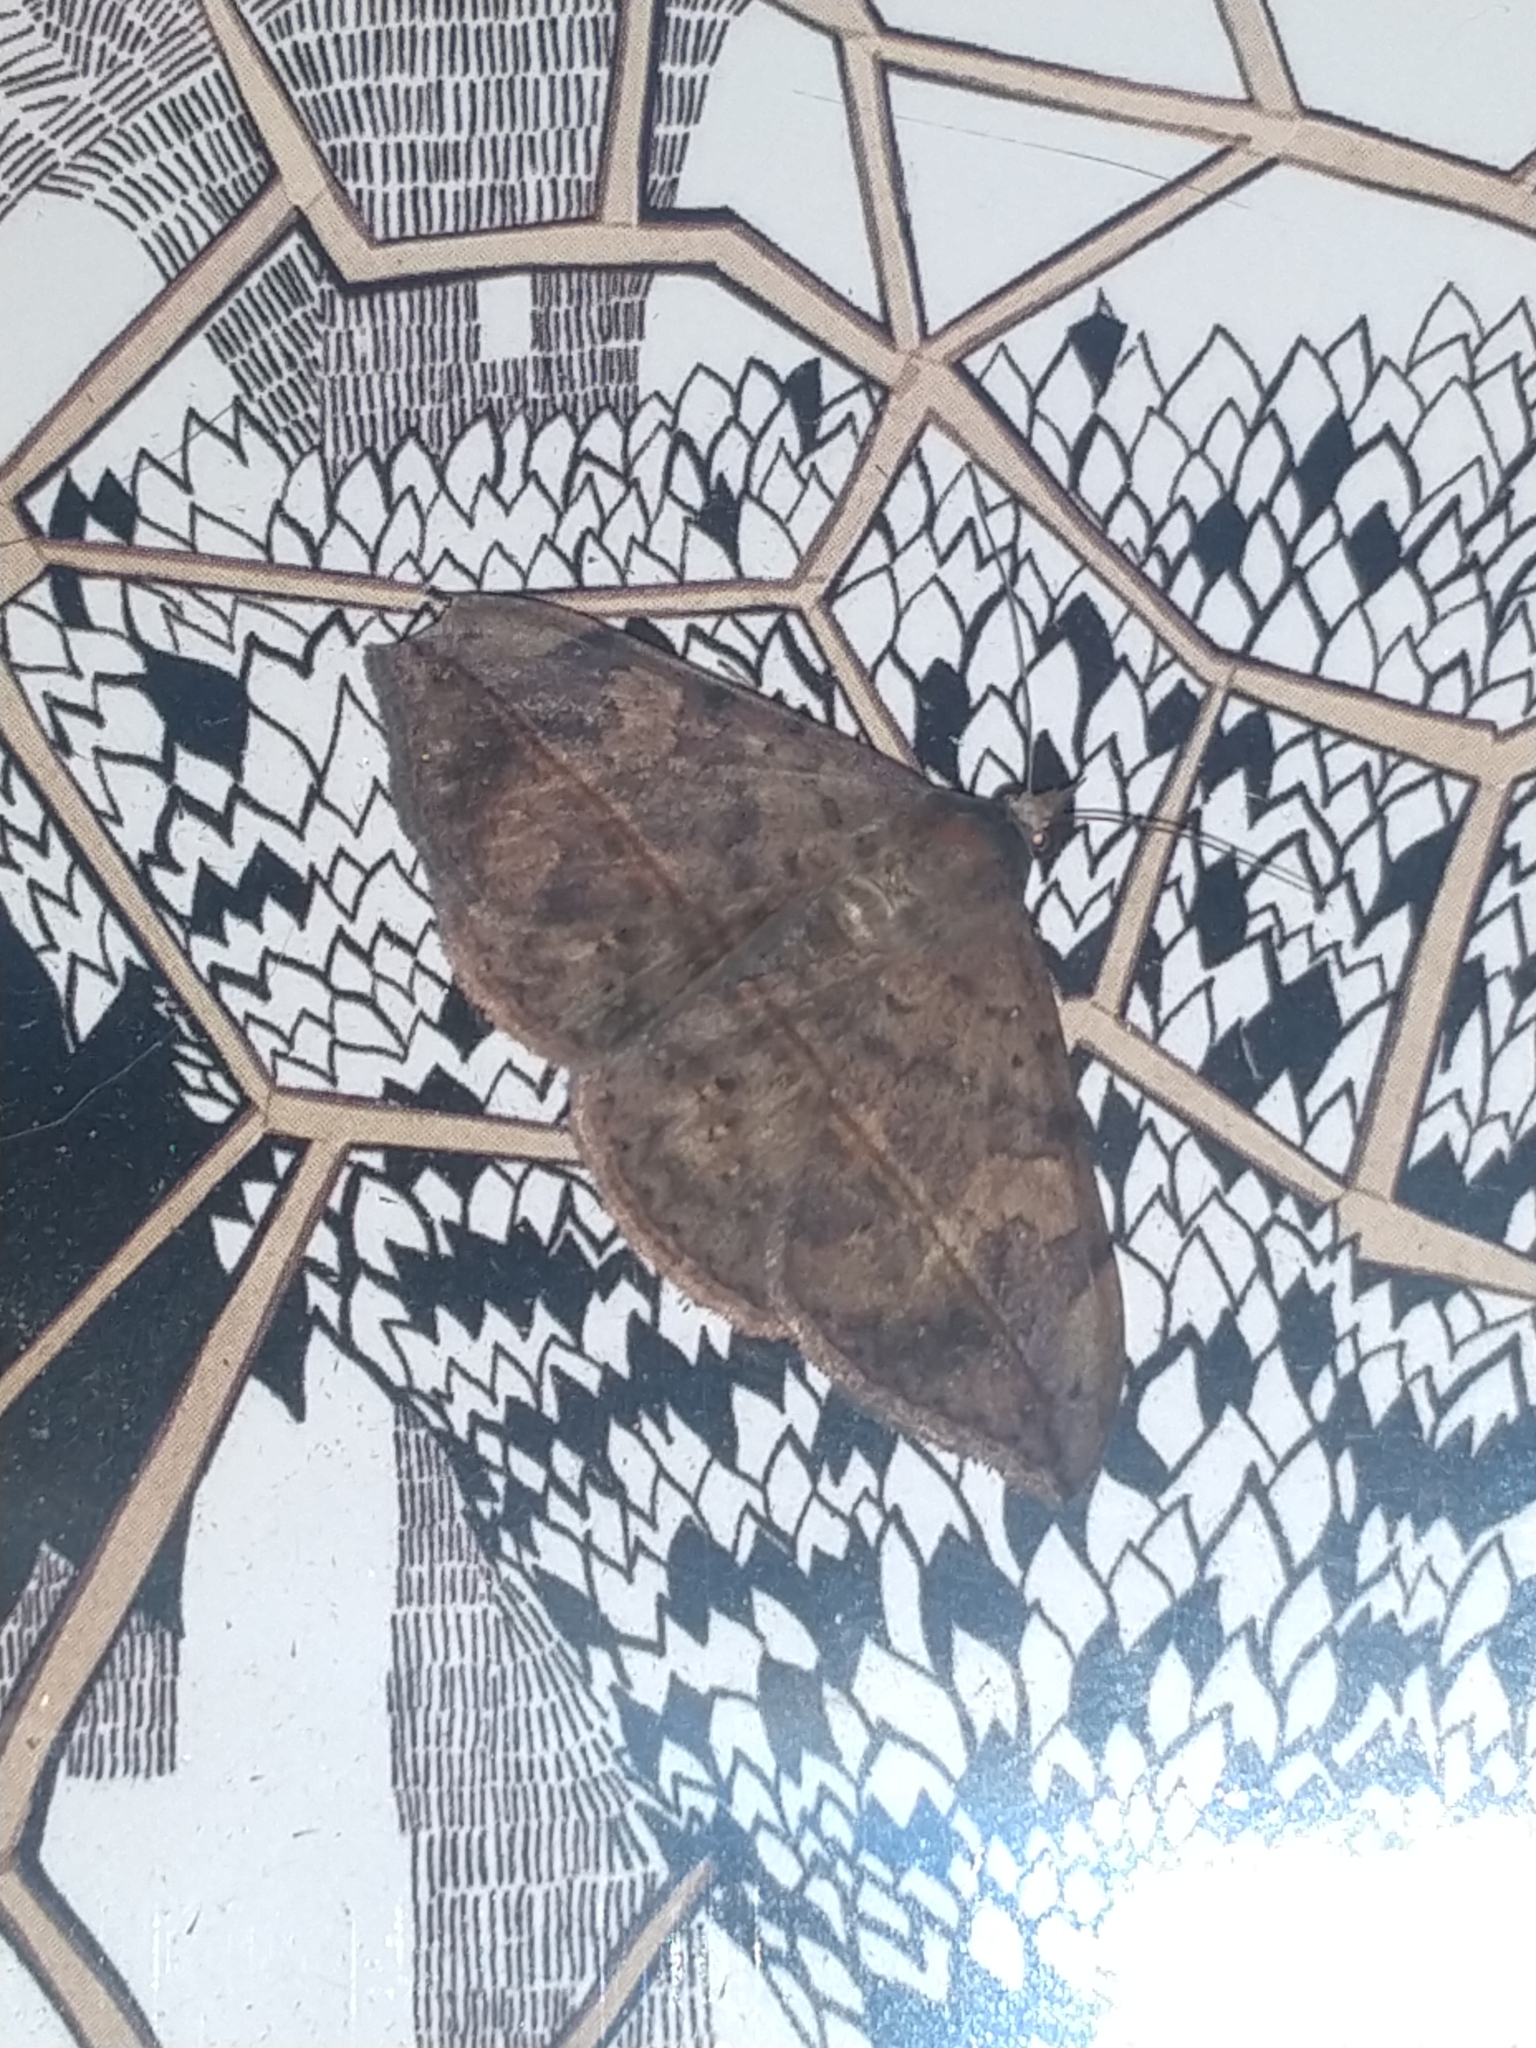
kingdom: Animalia
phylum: Arthropoda
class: Insecta
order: Lepidoptera
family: Erebidae
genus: Anticarsia
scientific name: Anticarsia gemmatalis
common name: Cutworm moth
